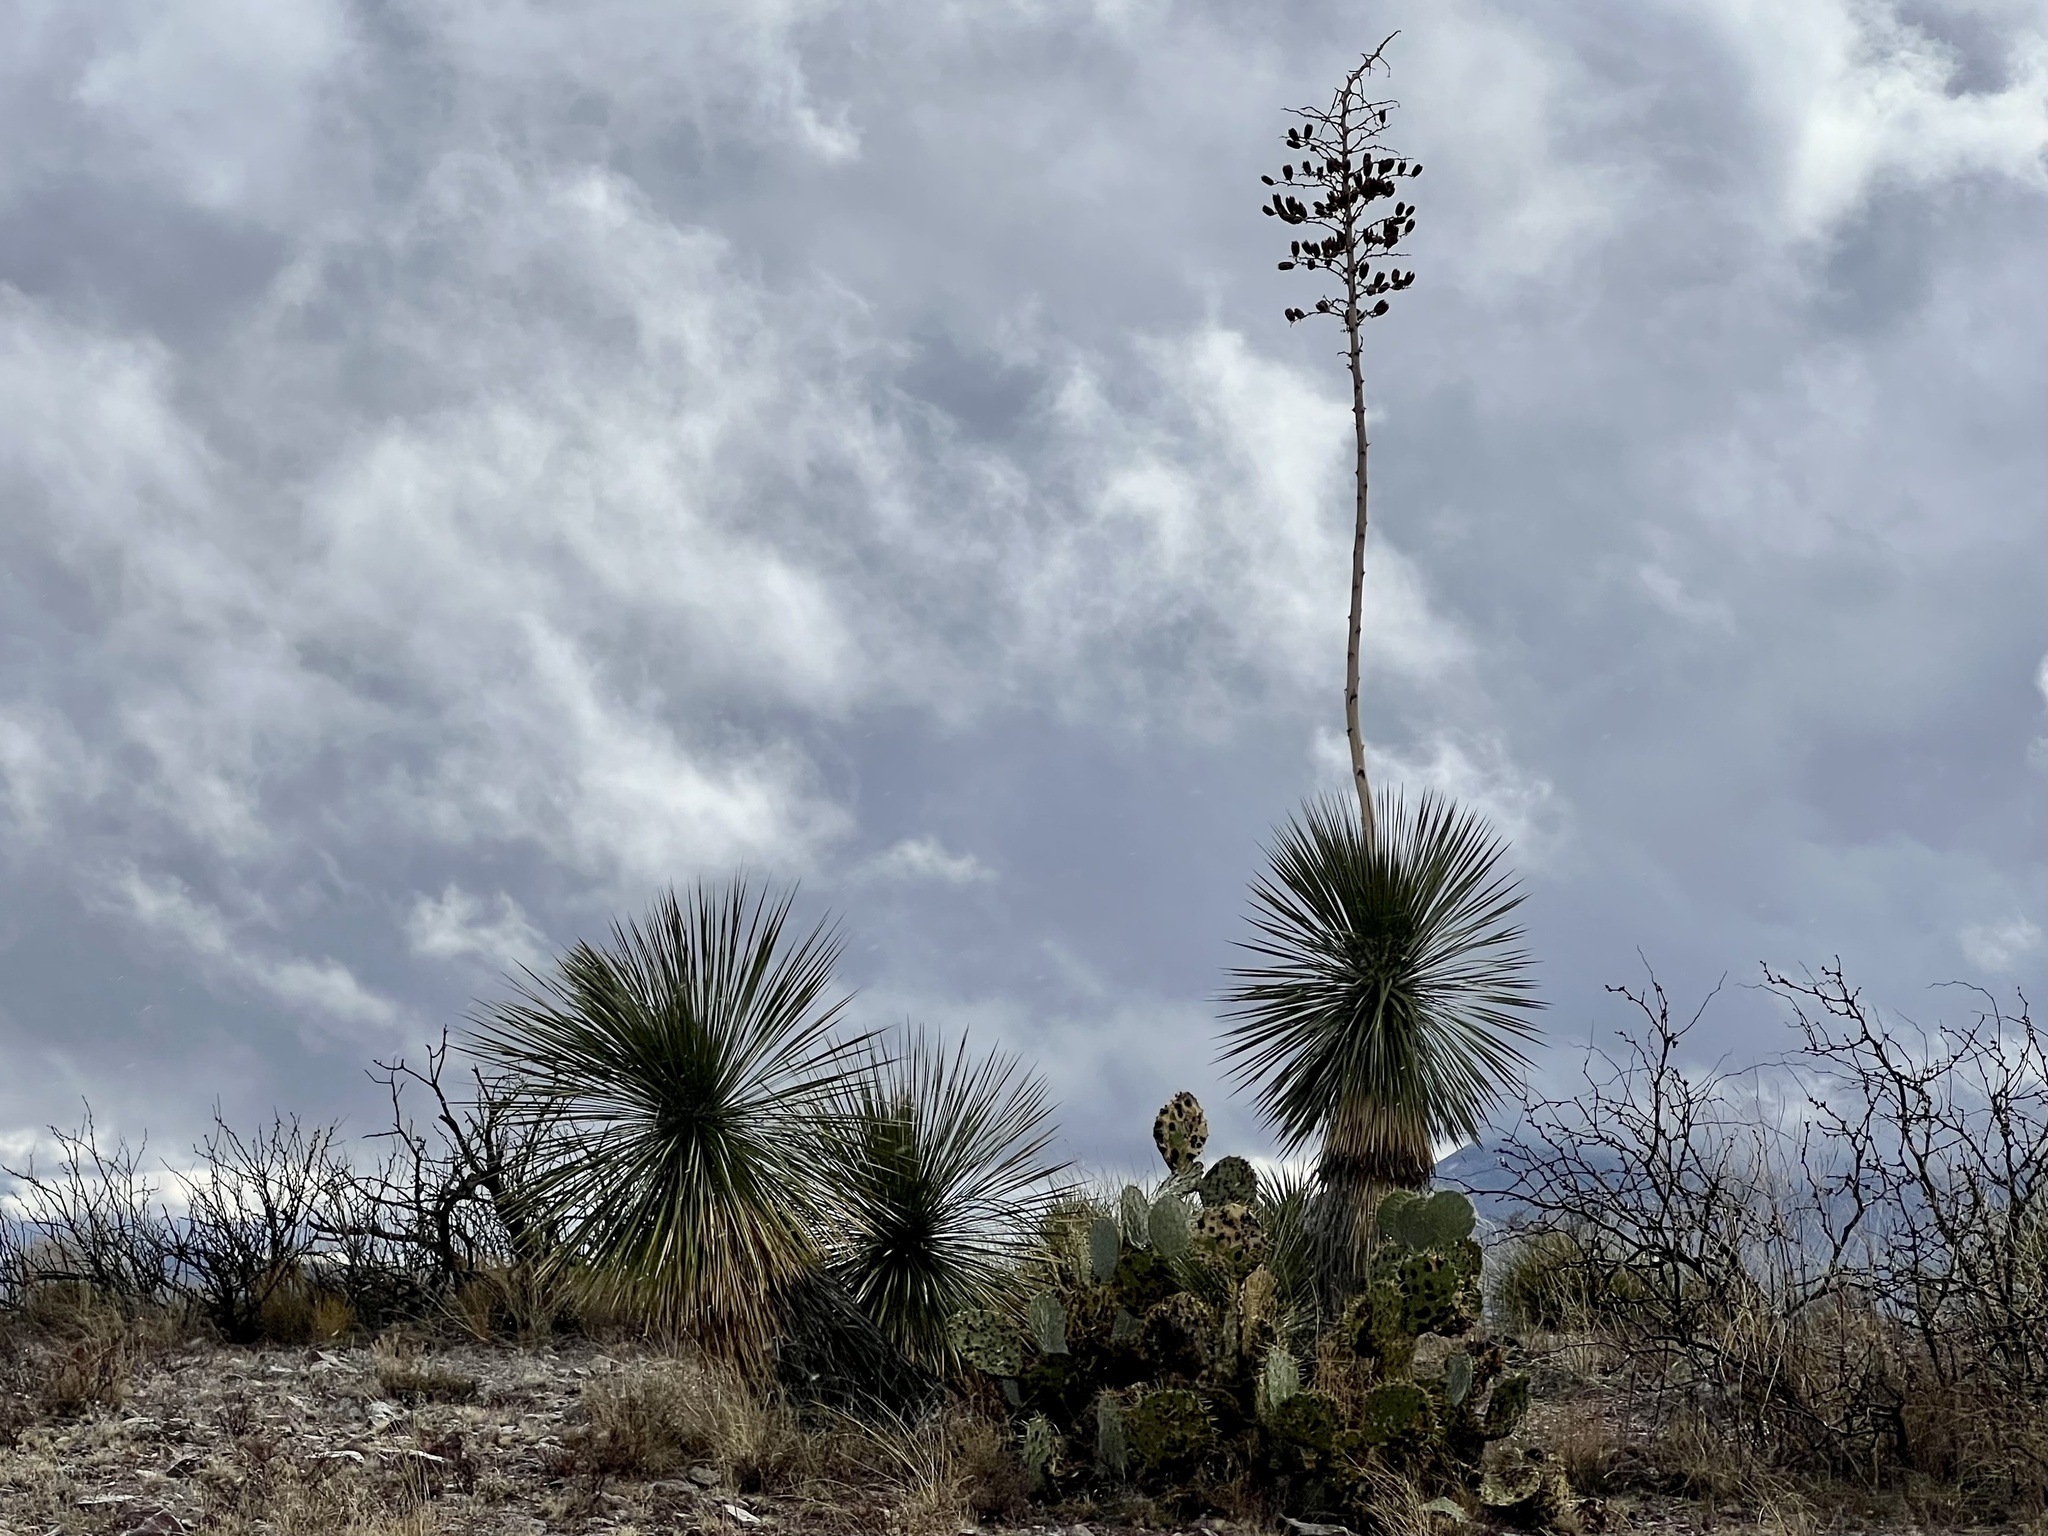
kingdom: Plantae
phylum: Tracheophyta
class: Liliopsida
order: Asparagales
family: Asparagaceae
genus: Yucca
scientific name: Yucca elata
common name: Palmella
